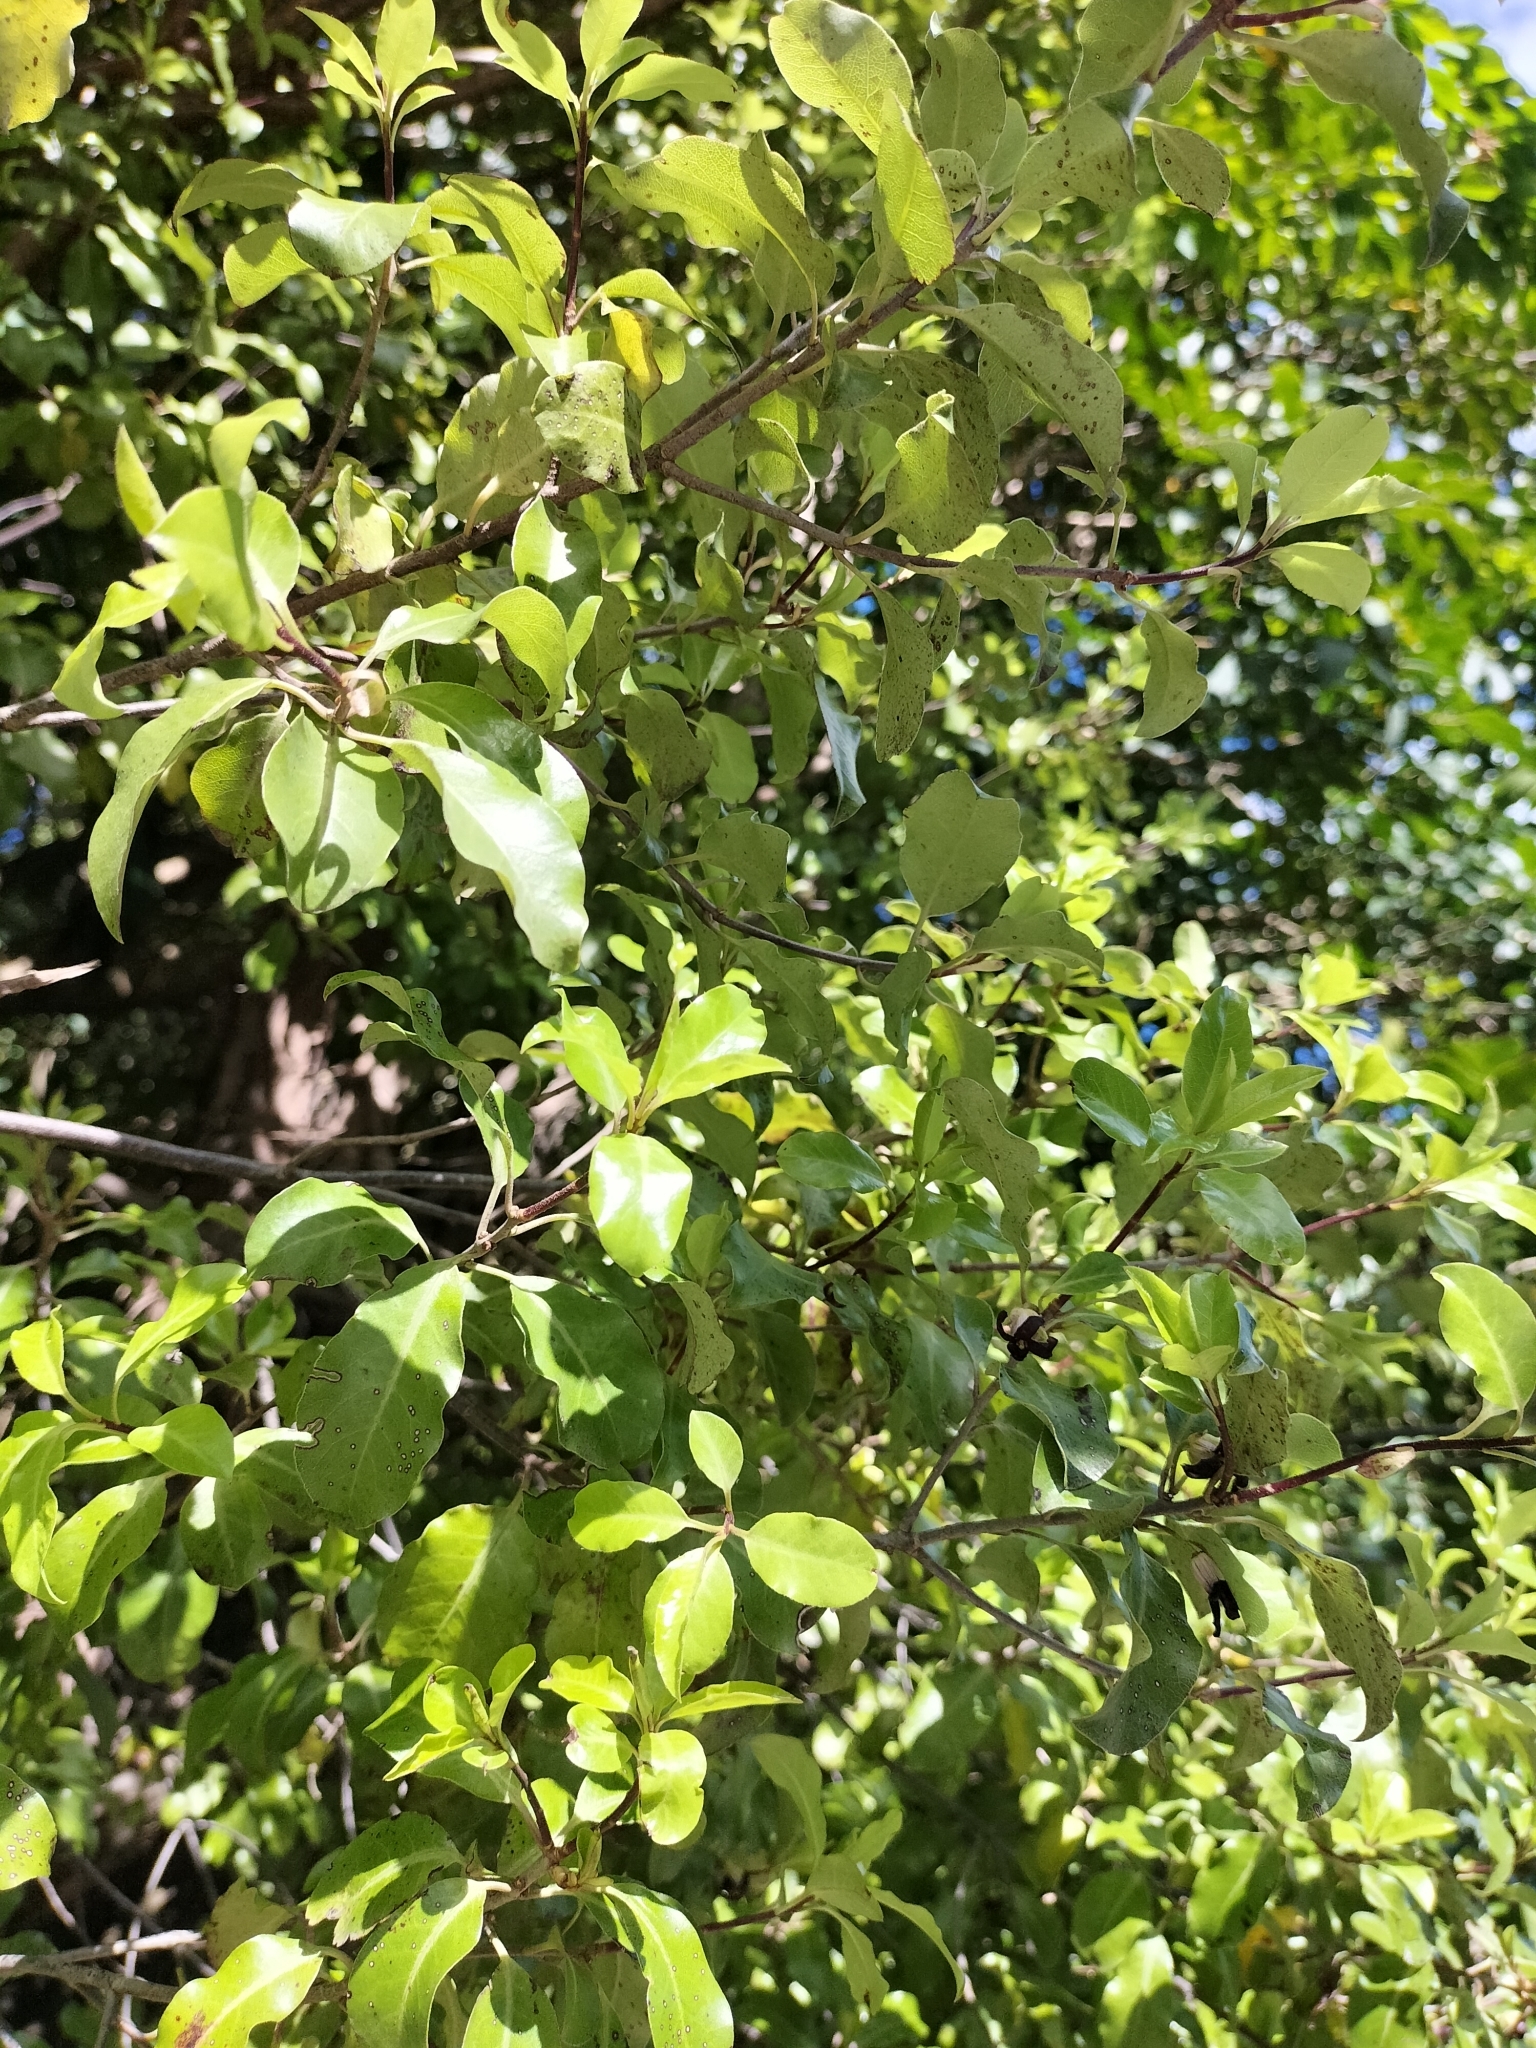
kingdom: Plantae
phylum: Tracheophyta
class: Magnoliopsida
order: Apiales
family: Pittosporaceae
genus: Pittosporum
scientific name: Pittosporum tenuifolium
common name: Kohuhu
